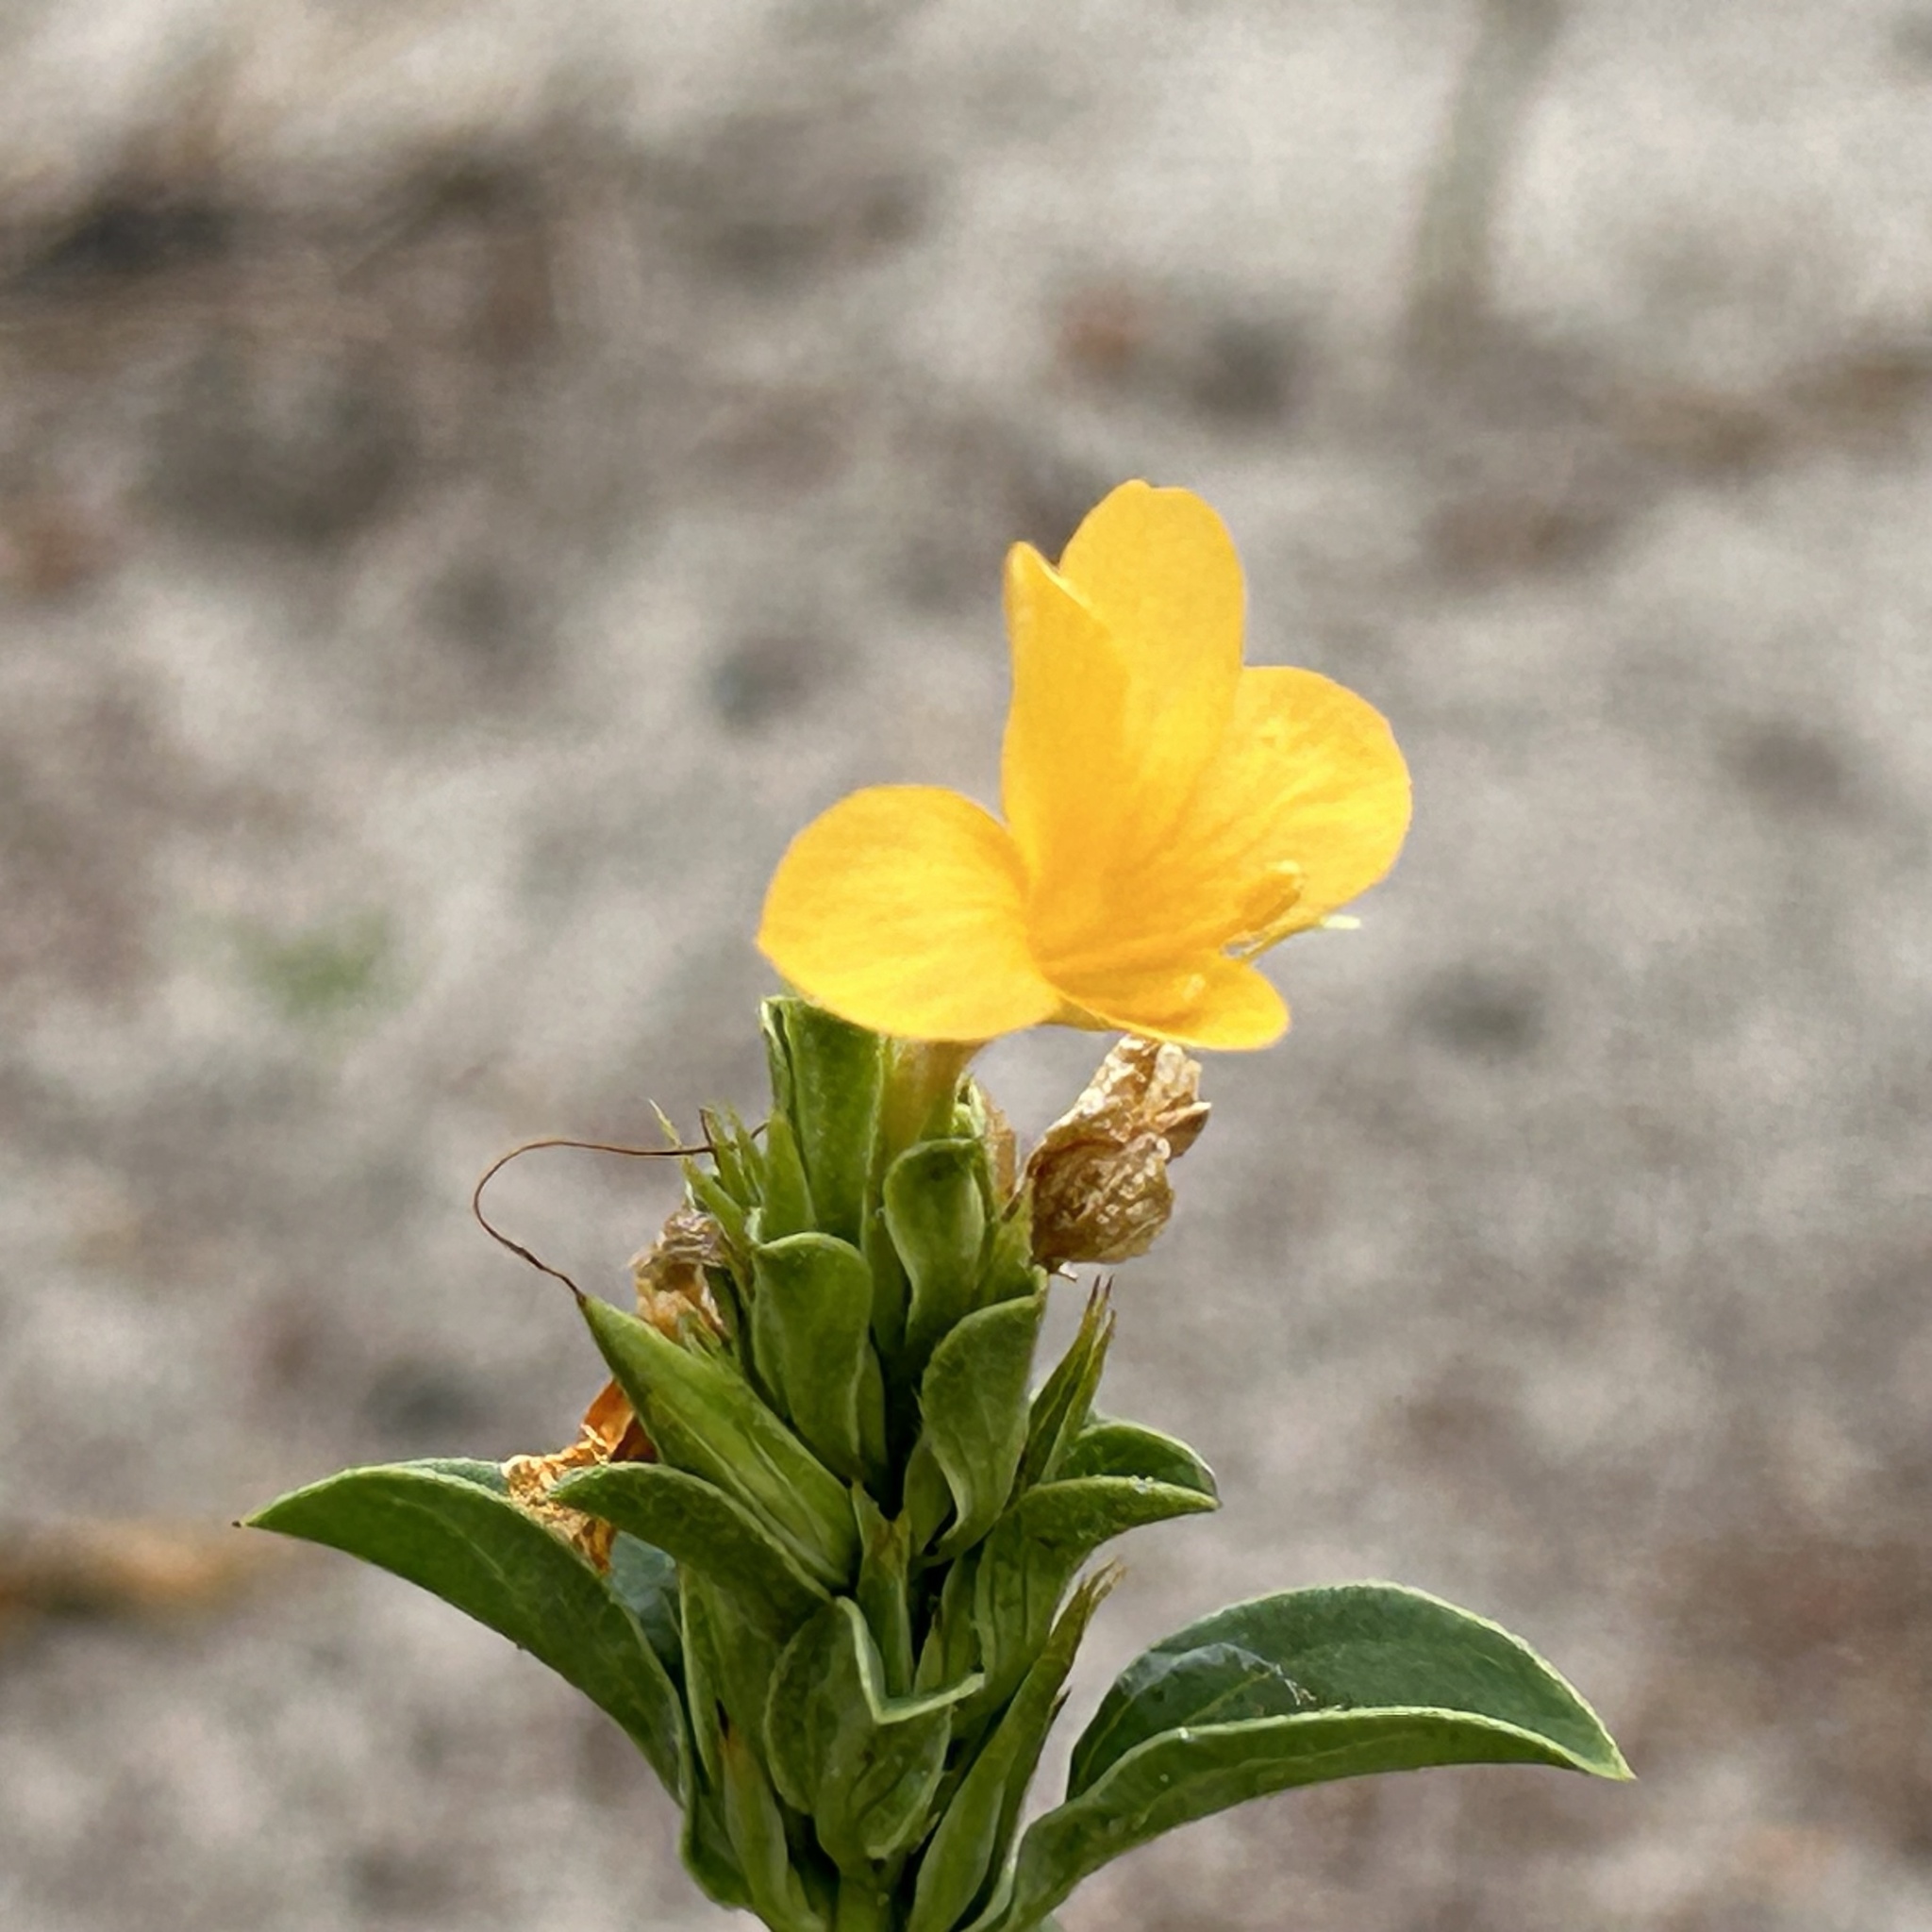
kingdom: Plantae
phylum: Tracheophyta
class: Magnoliopsida
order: Lamiales
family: Acanthaceae
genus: Barleria
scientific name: Barleria senensis
